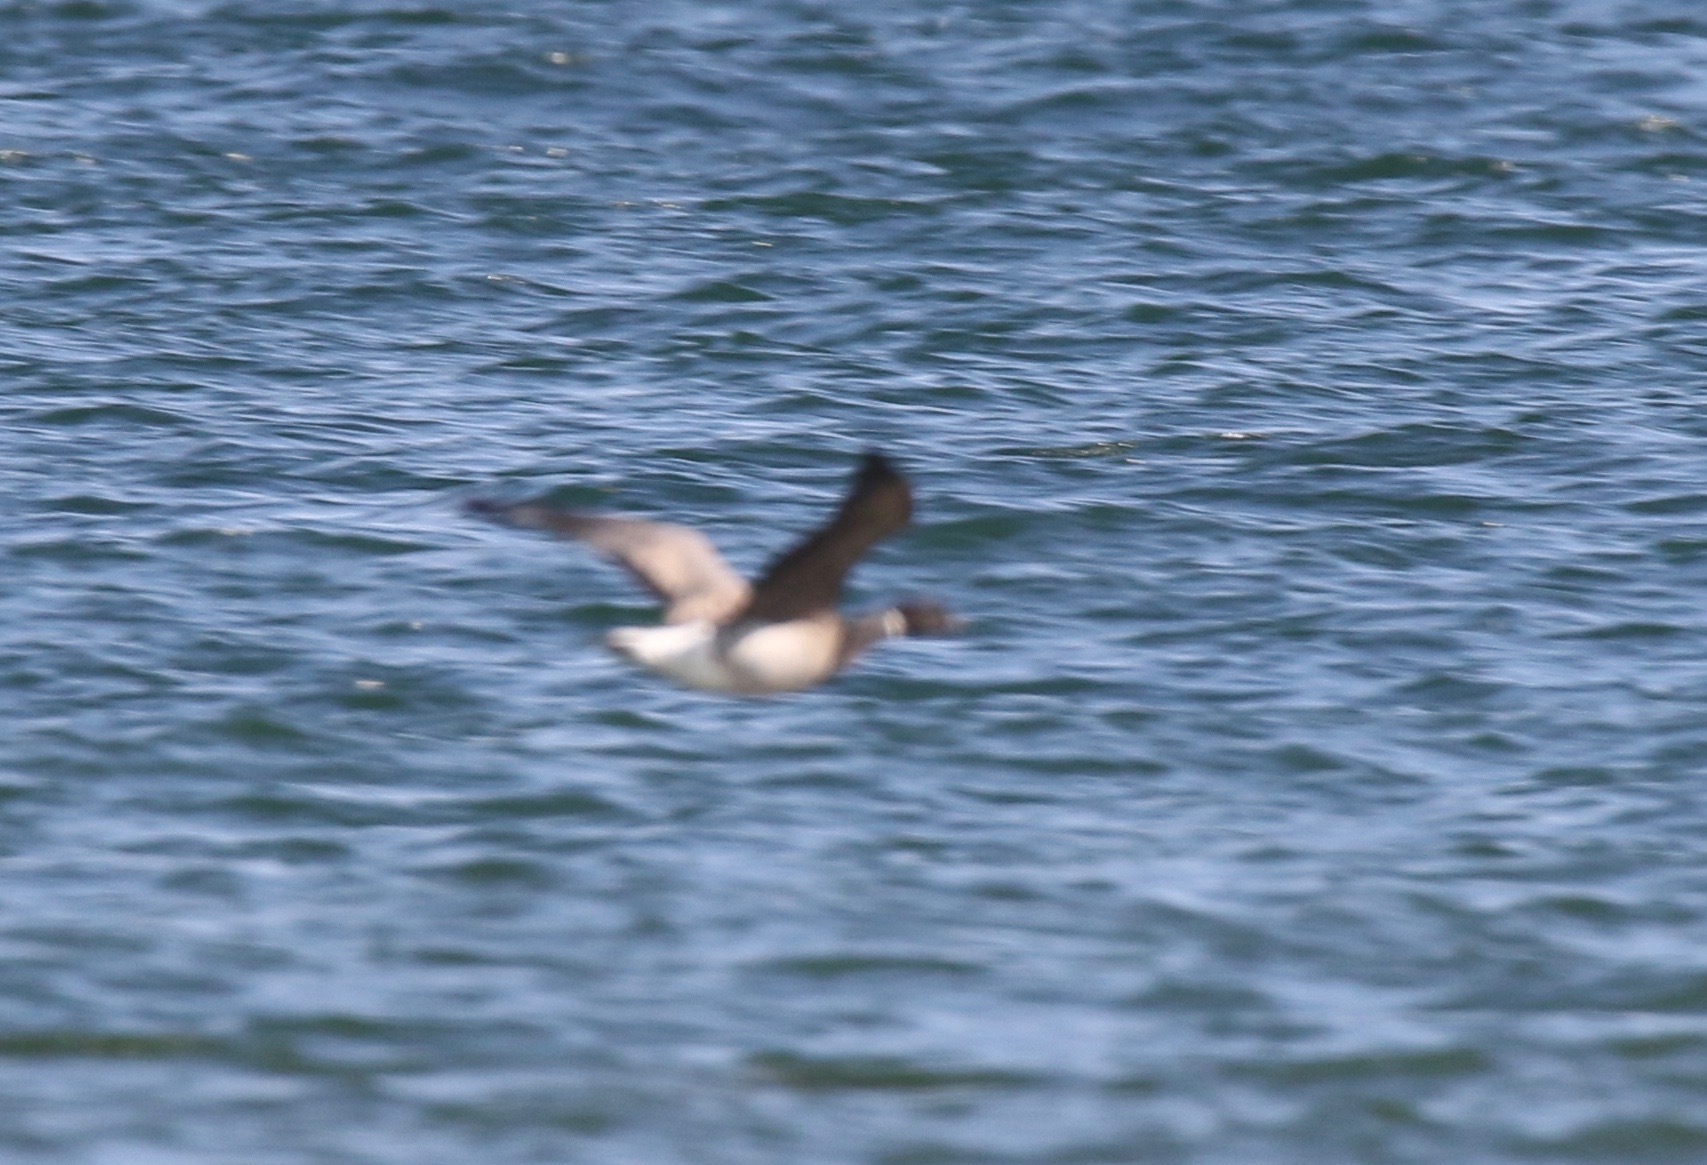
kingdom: Animalia
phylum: Chordata
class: Aves
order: Anseriformes
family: Anatidae
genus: Branta
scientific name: Branta bernicla
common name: Brant goose
